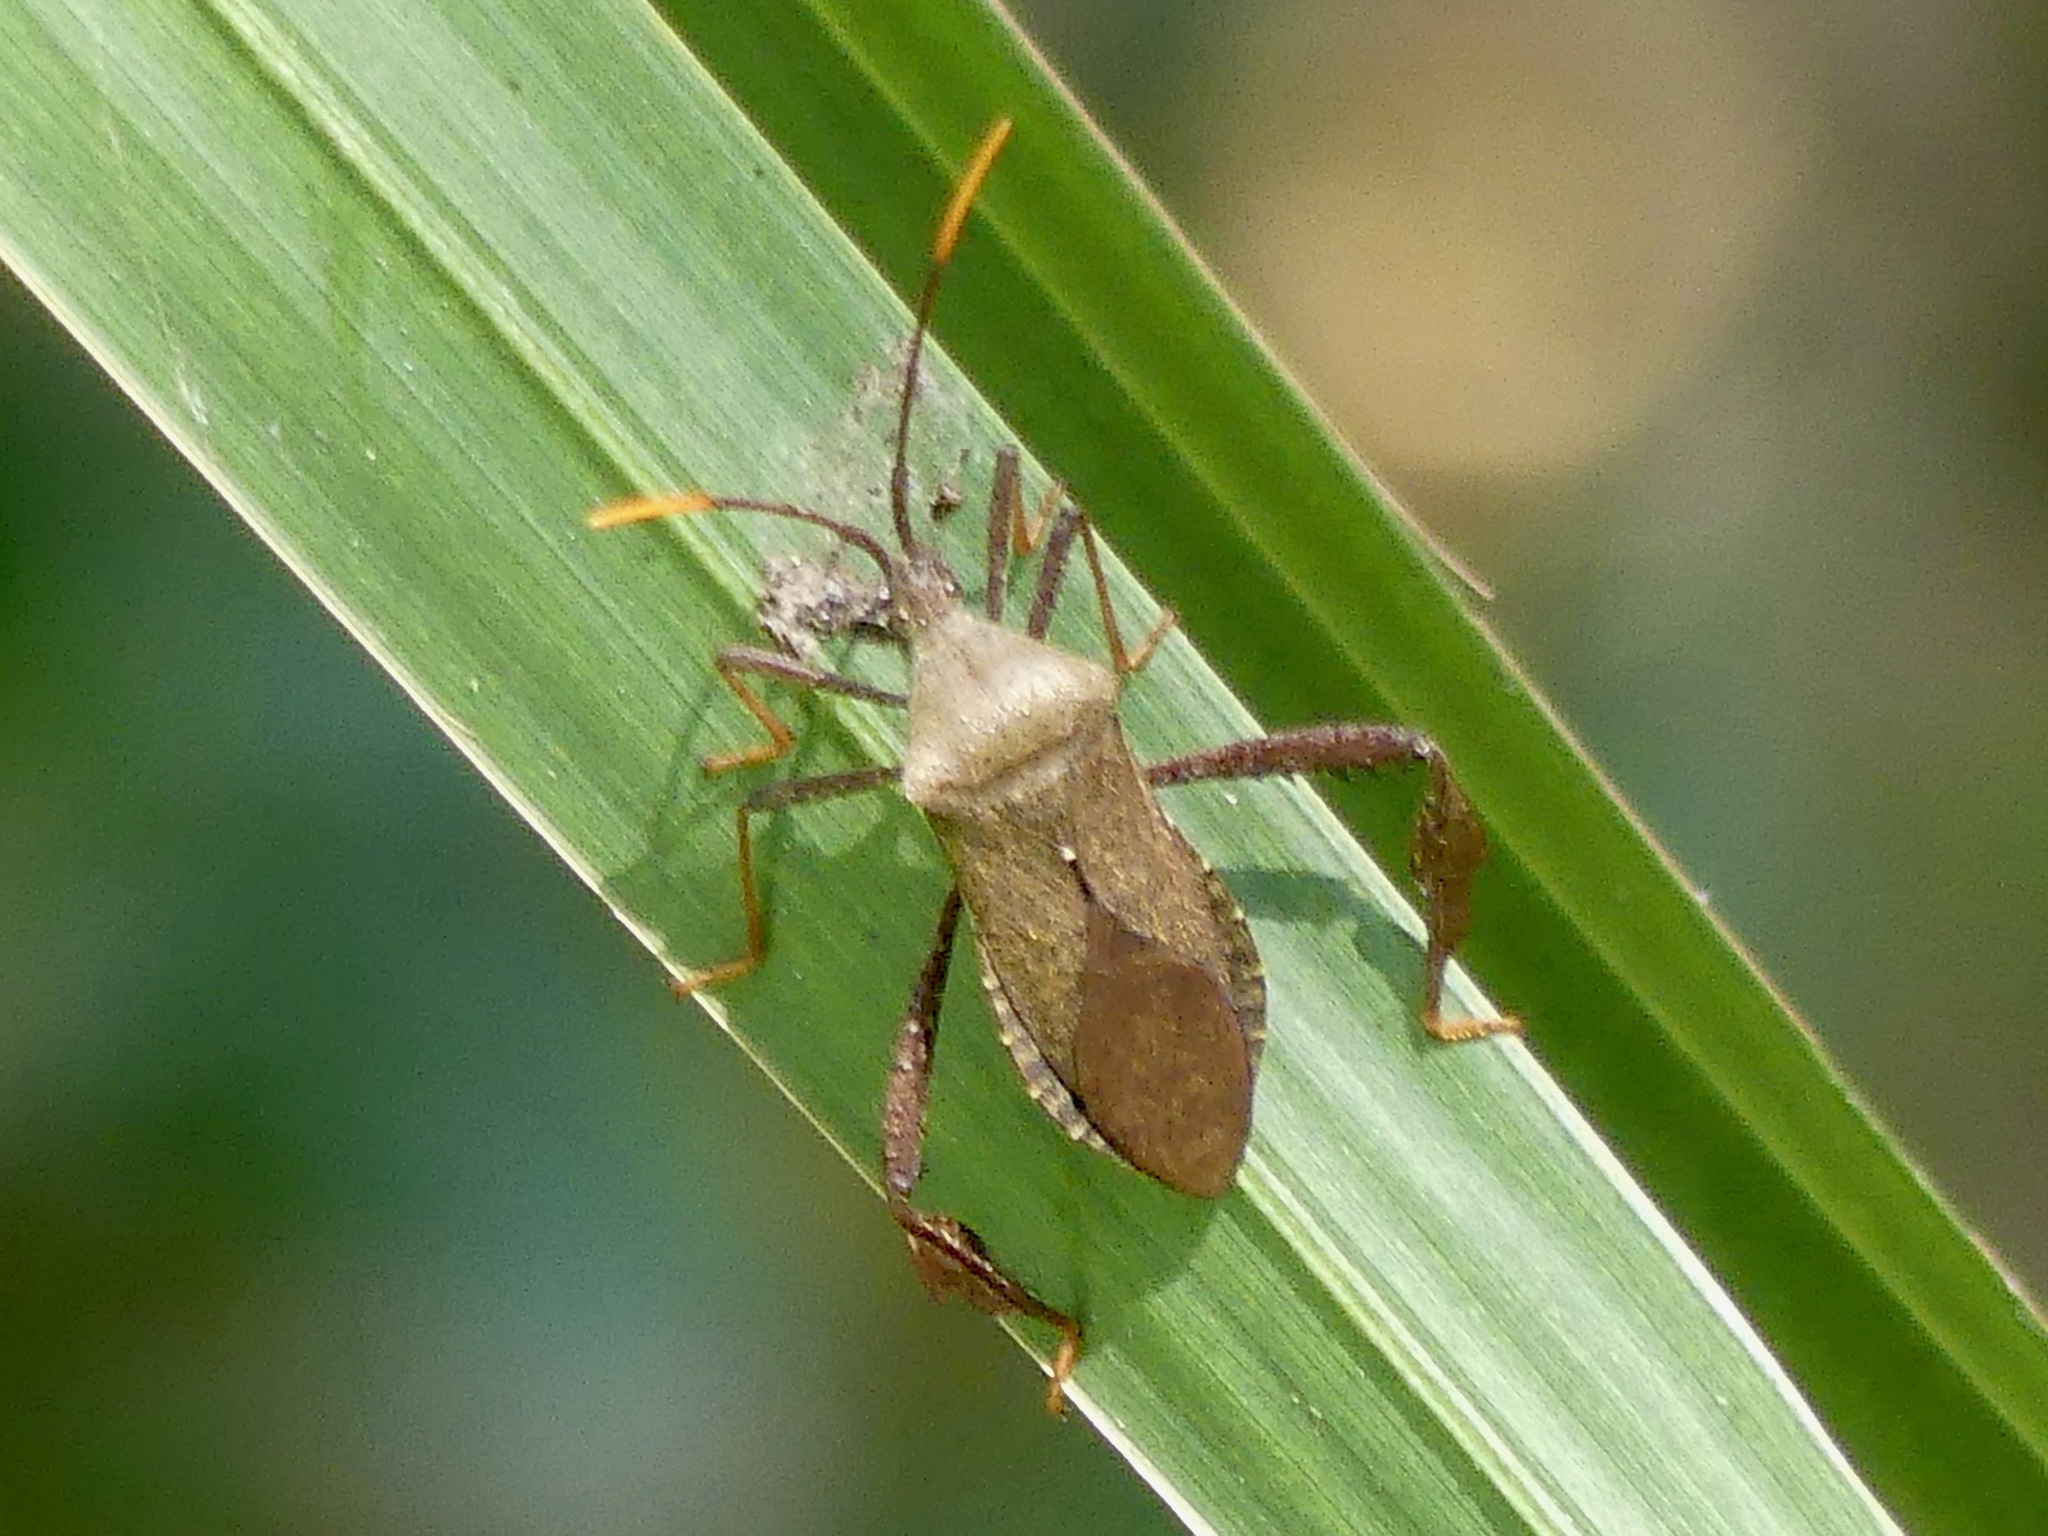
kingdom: Animalia
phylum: Arthropoda
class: Insecta
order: Hemiptera
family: Coreidae
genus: Acanthocephala
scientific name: Acanthocephala terminalis
